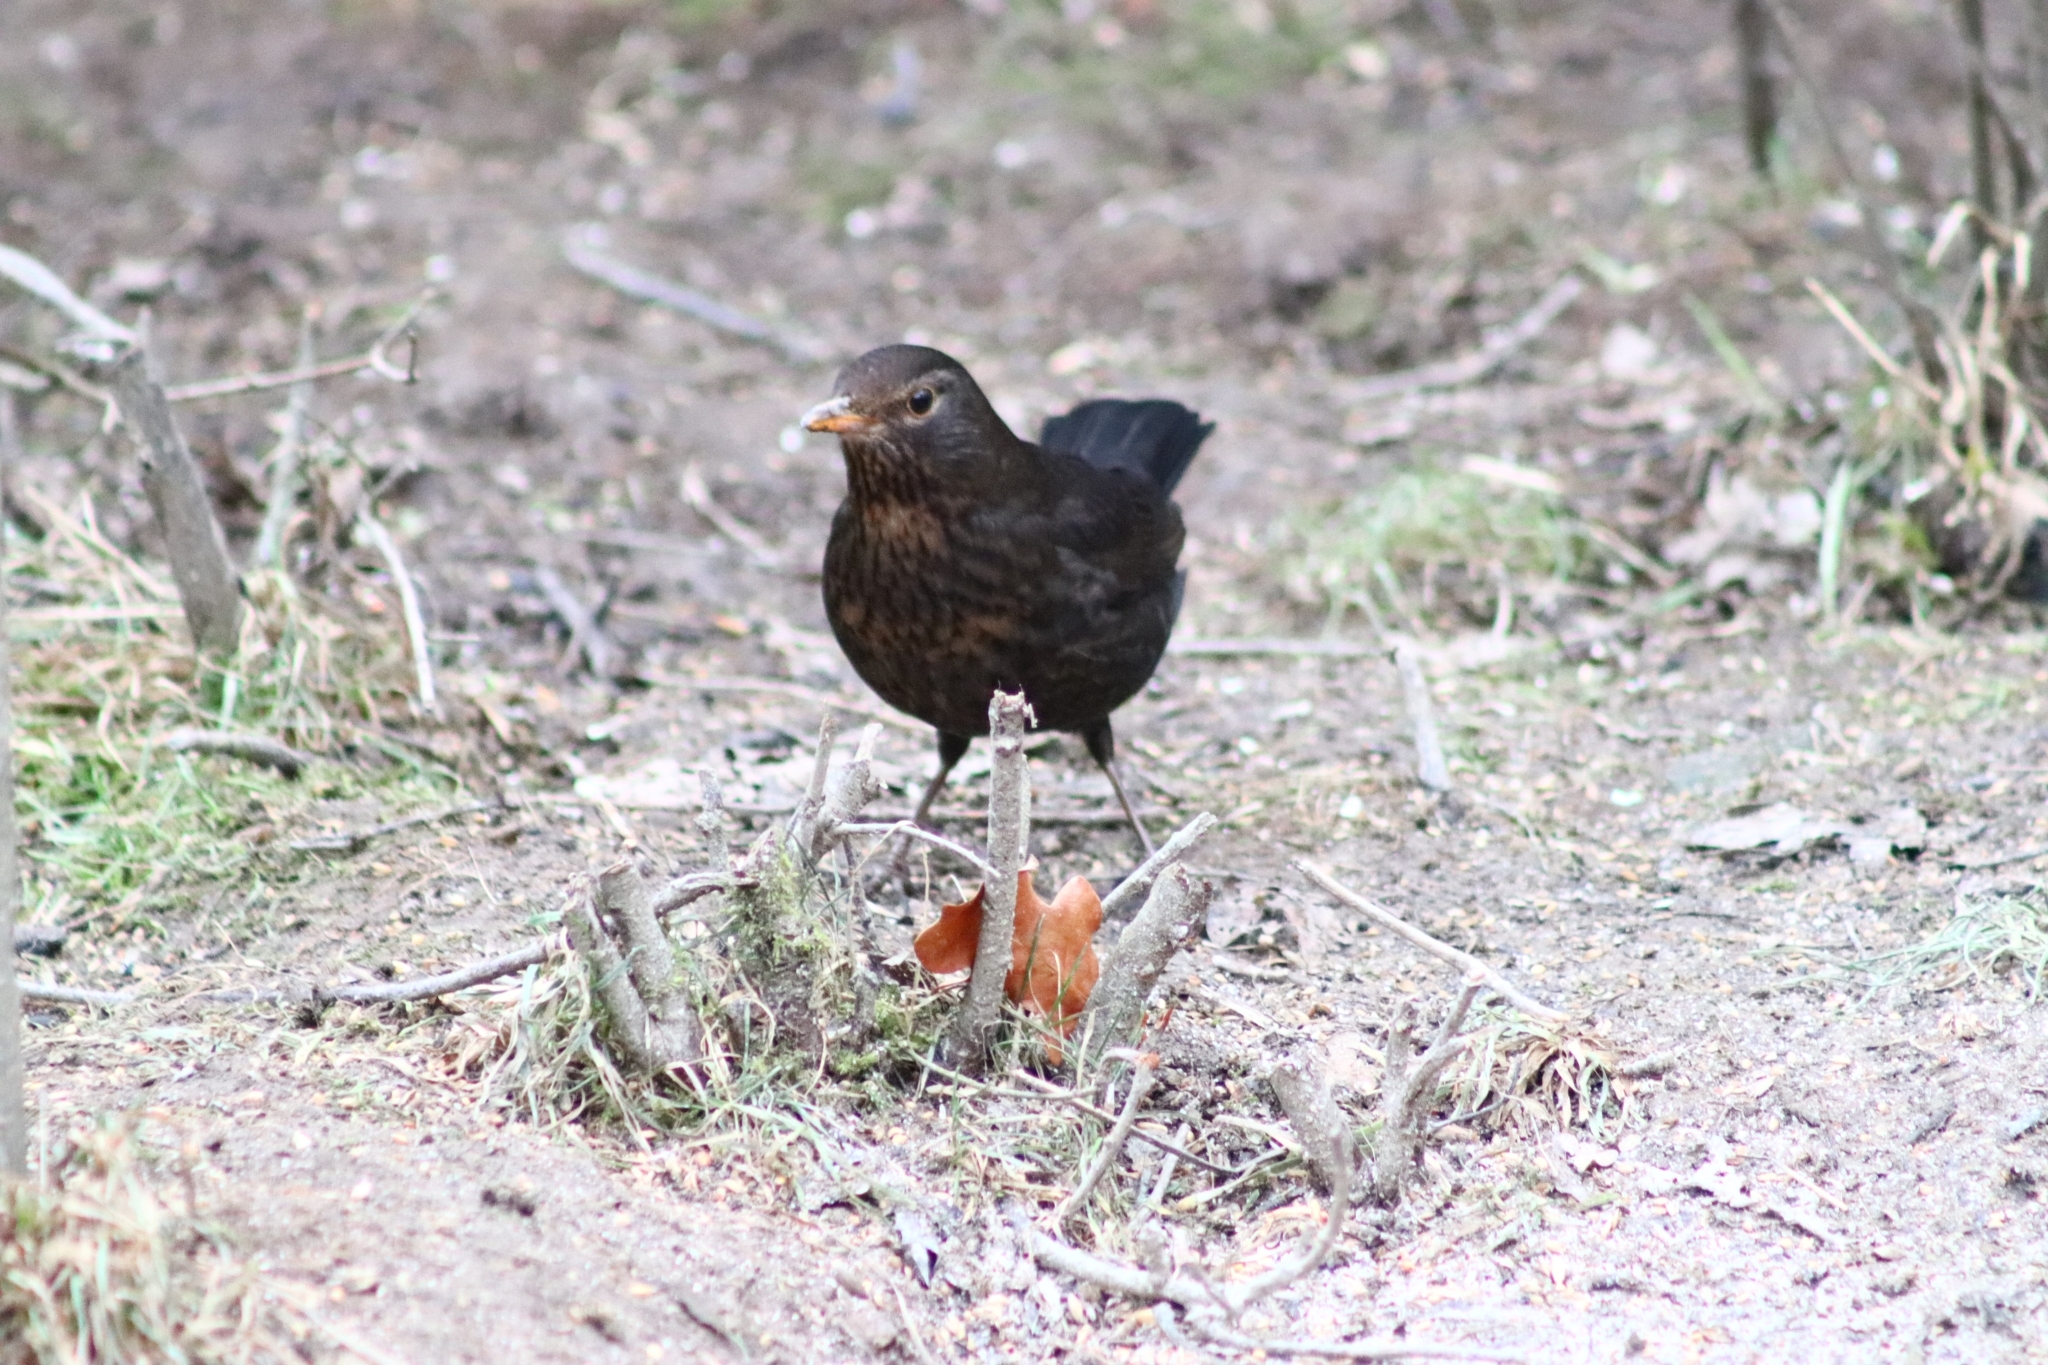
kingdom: Animalia
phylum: Chordata
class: Aves
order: Passeriformes
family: Turdidae
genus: Turdus
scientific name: Turdus merula
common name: Common blackbird
